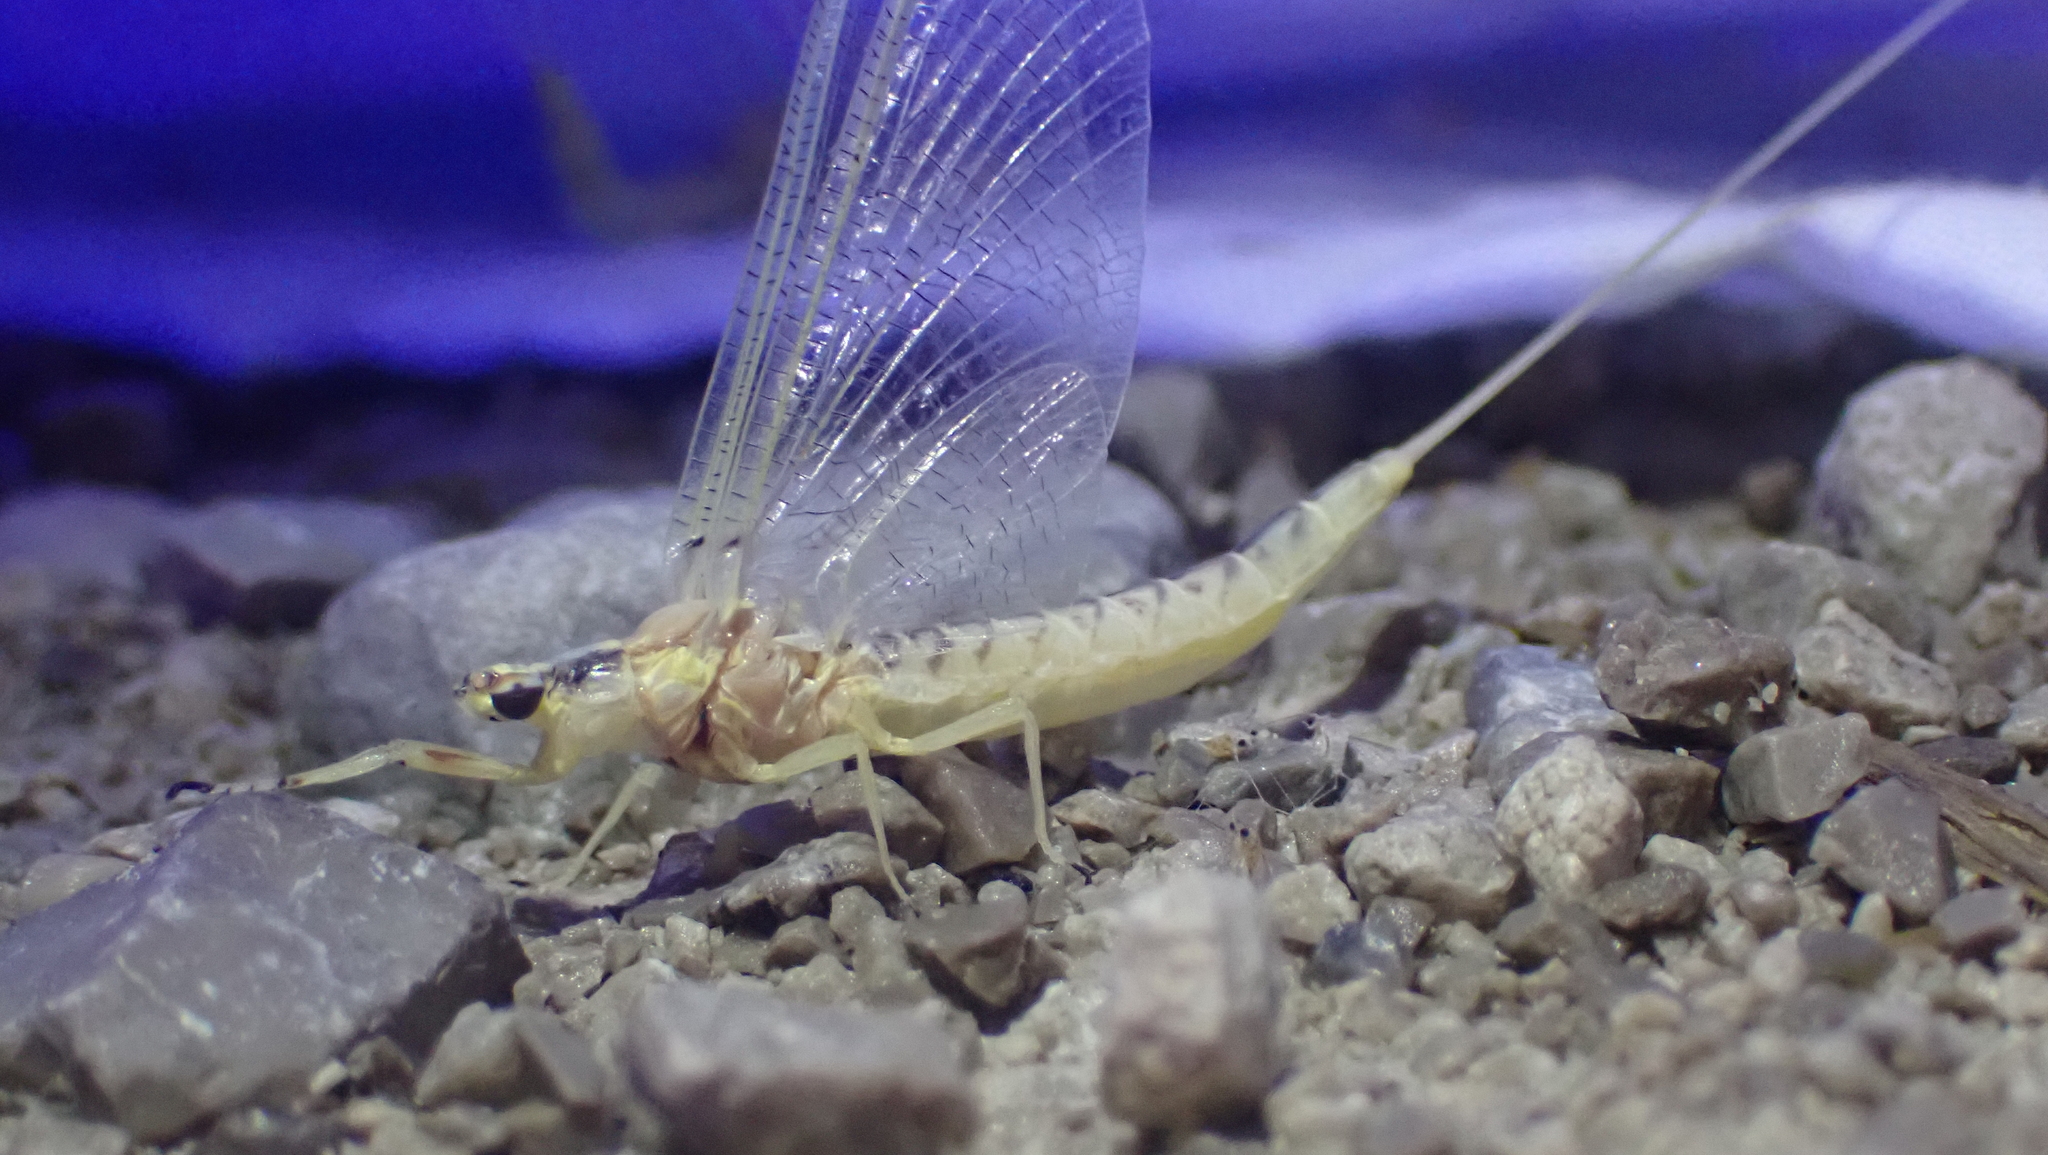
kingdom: Animalia
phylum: Arthropoda
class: Insecta
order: Ephemeroptera
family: Ephemeridae
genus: Hexagenia
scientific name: Hexagenia limbata
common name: Giant mayfly
